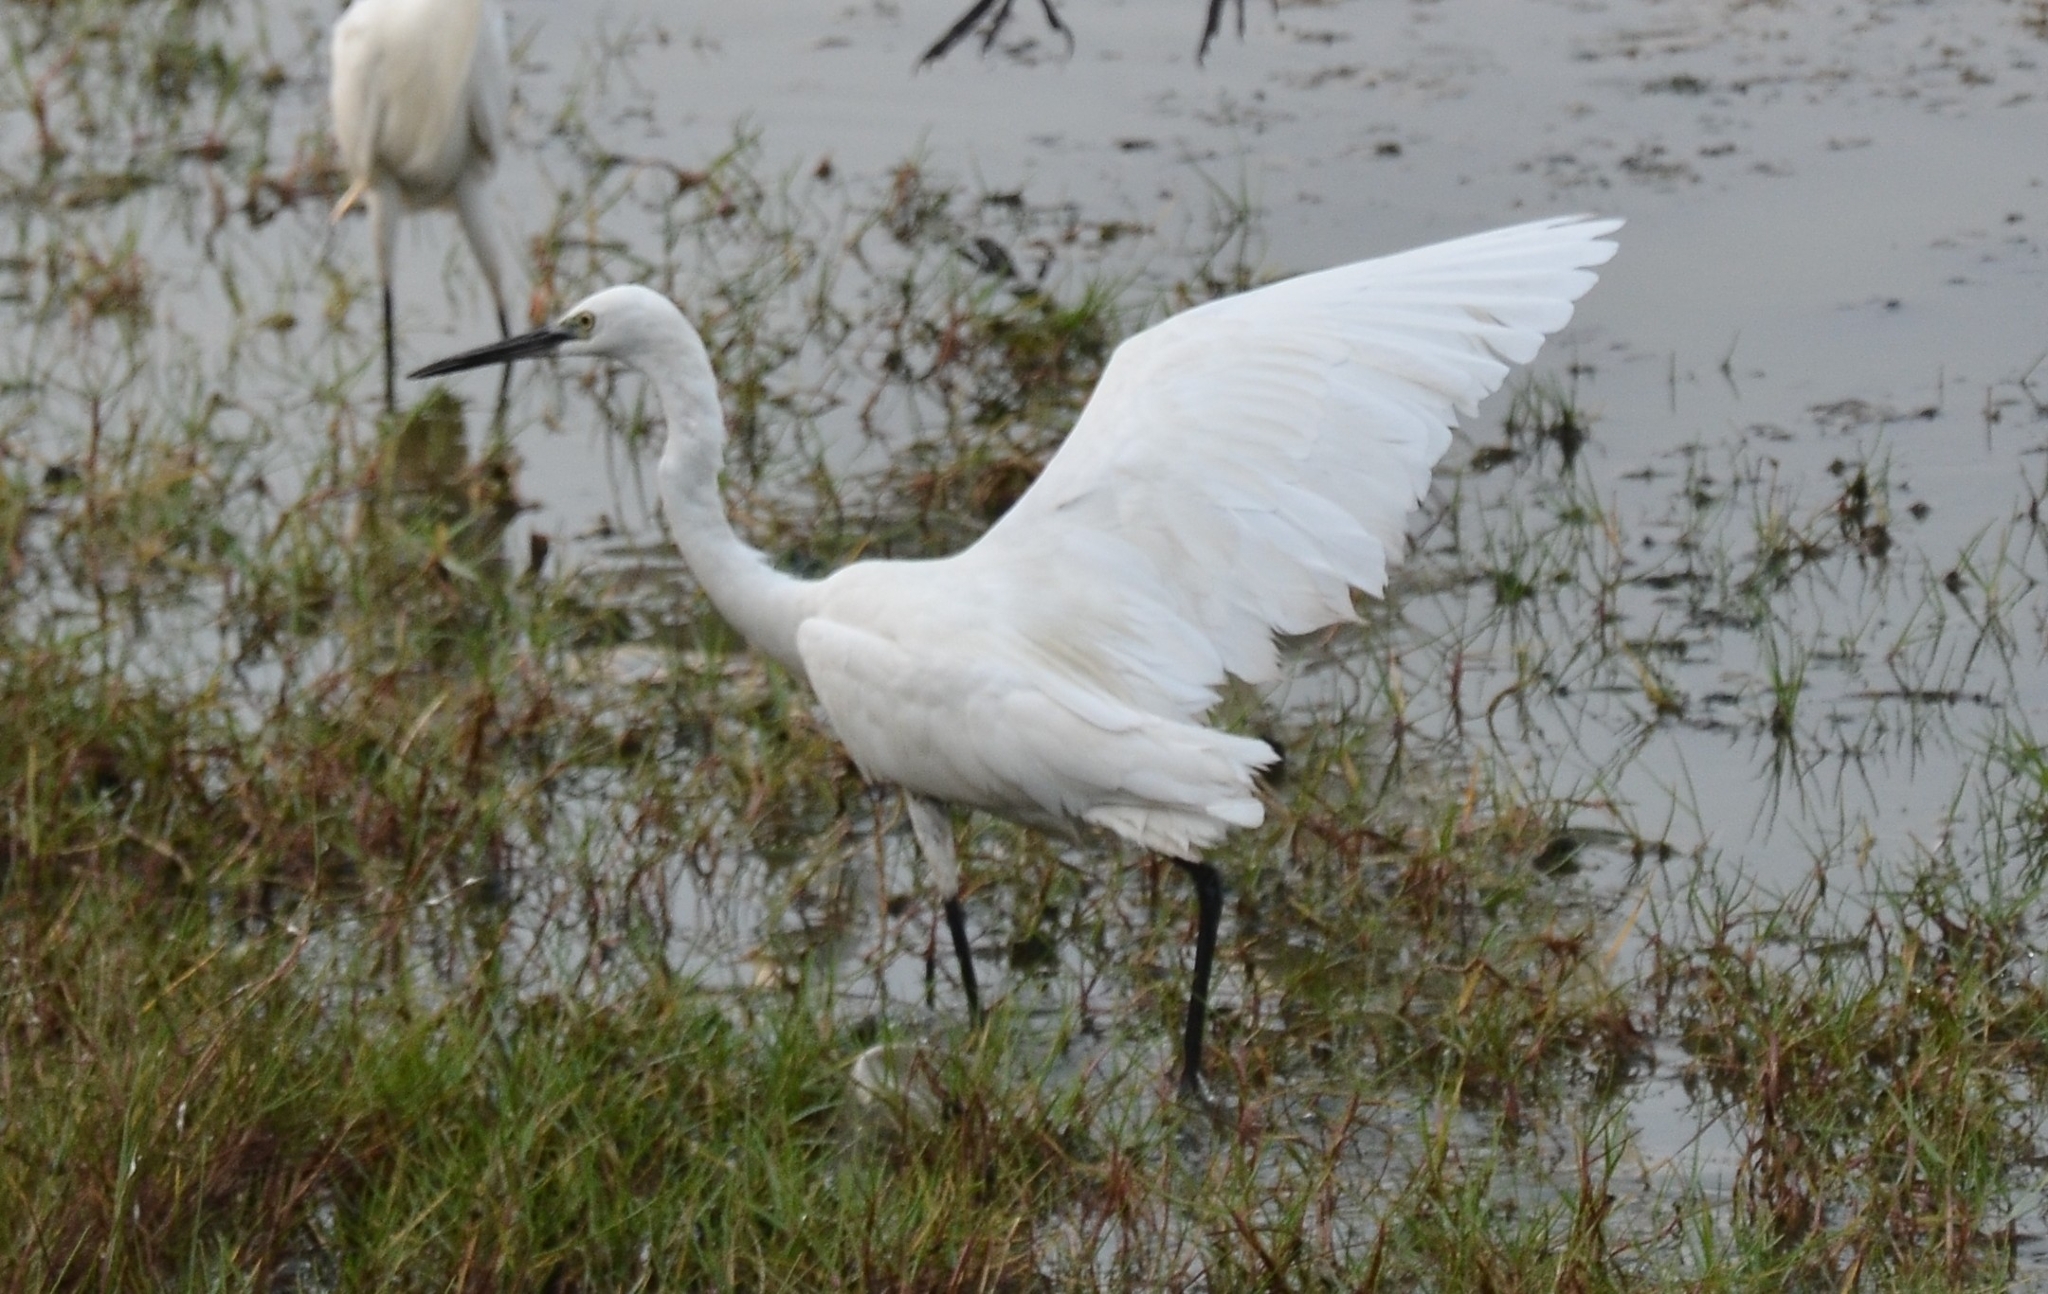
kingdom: Animalia
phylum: Chordata
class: Aves
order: Pelecaniformes
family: Ardeidae
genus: Egretta
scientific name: Egretta garzetta
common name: Little egret
